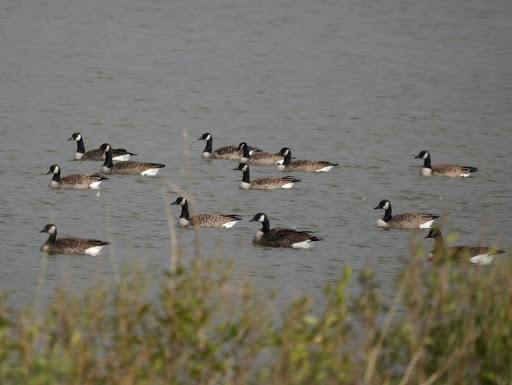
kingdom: Animalia
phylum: Chordata
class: Aves
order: Anseriformes
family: Anatidae
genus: Branta
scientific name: Branta canadensis
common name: Canada goose
